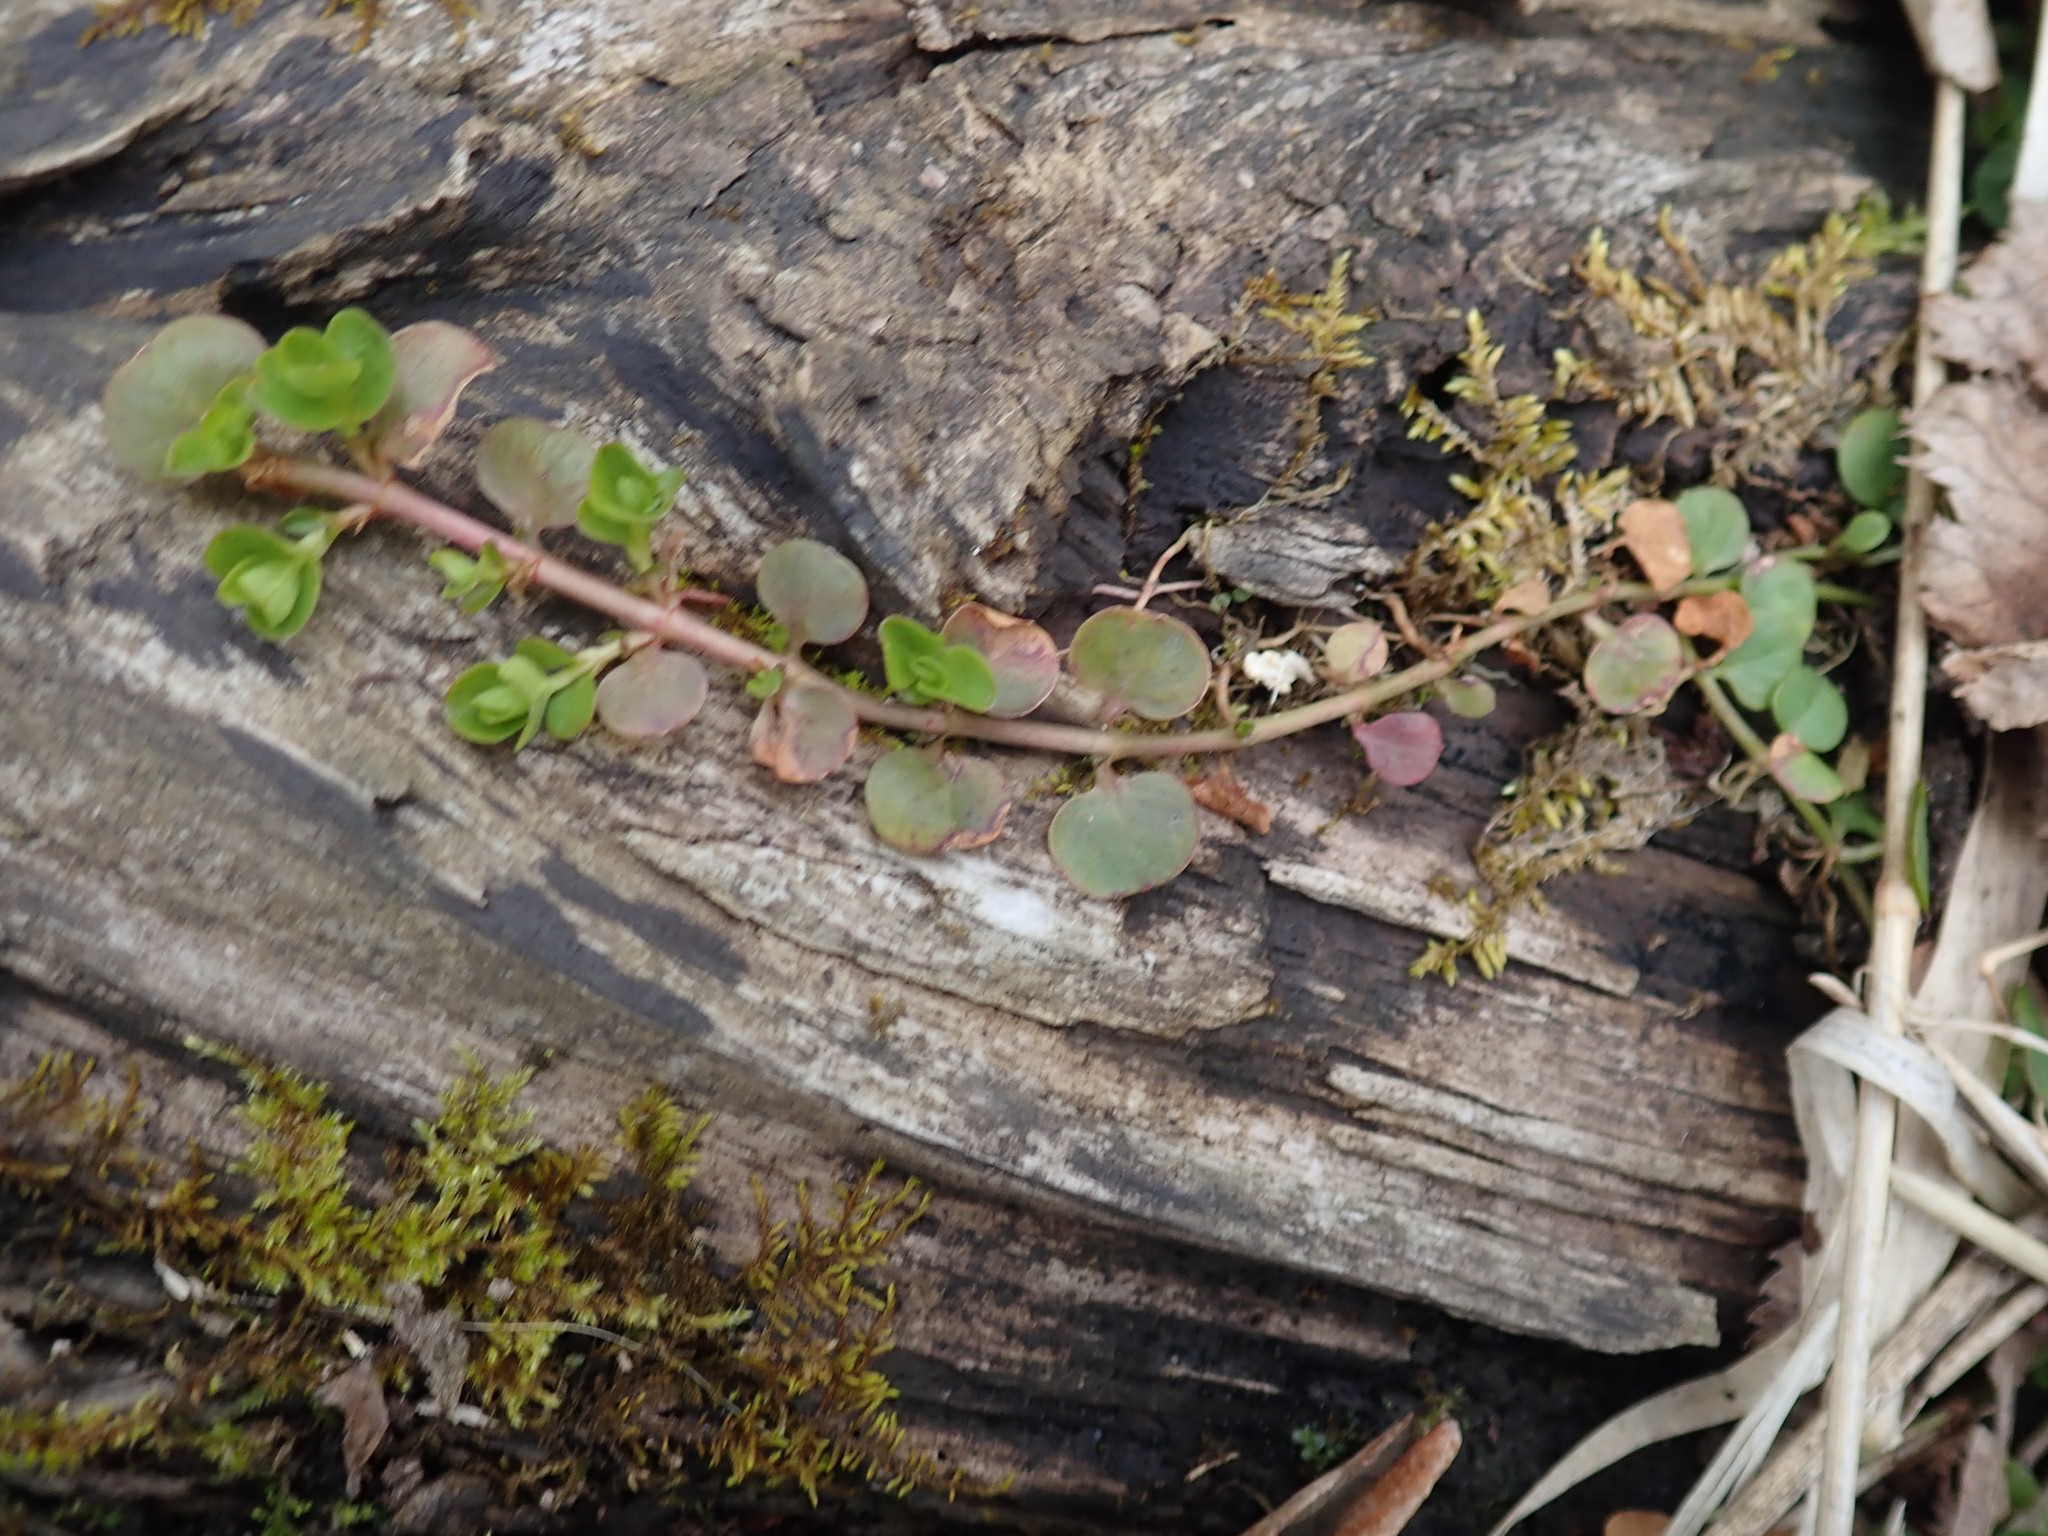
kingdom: Plantae
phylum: Tracheophyta
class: Magnoliopsida
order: Ericales
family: Primulaceae
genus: Lysimachia
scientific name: Lysimachia nummularia
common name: Moneywort
